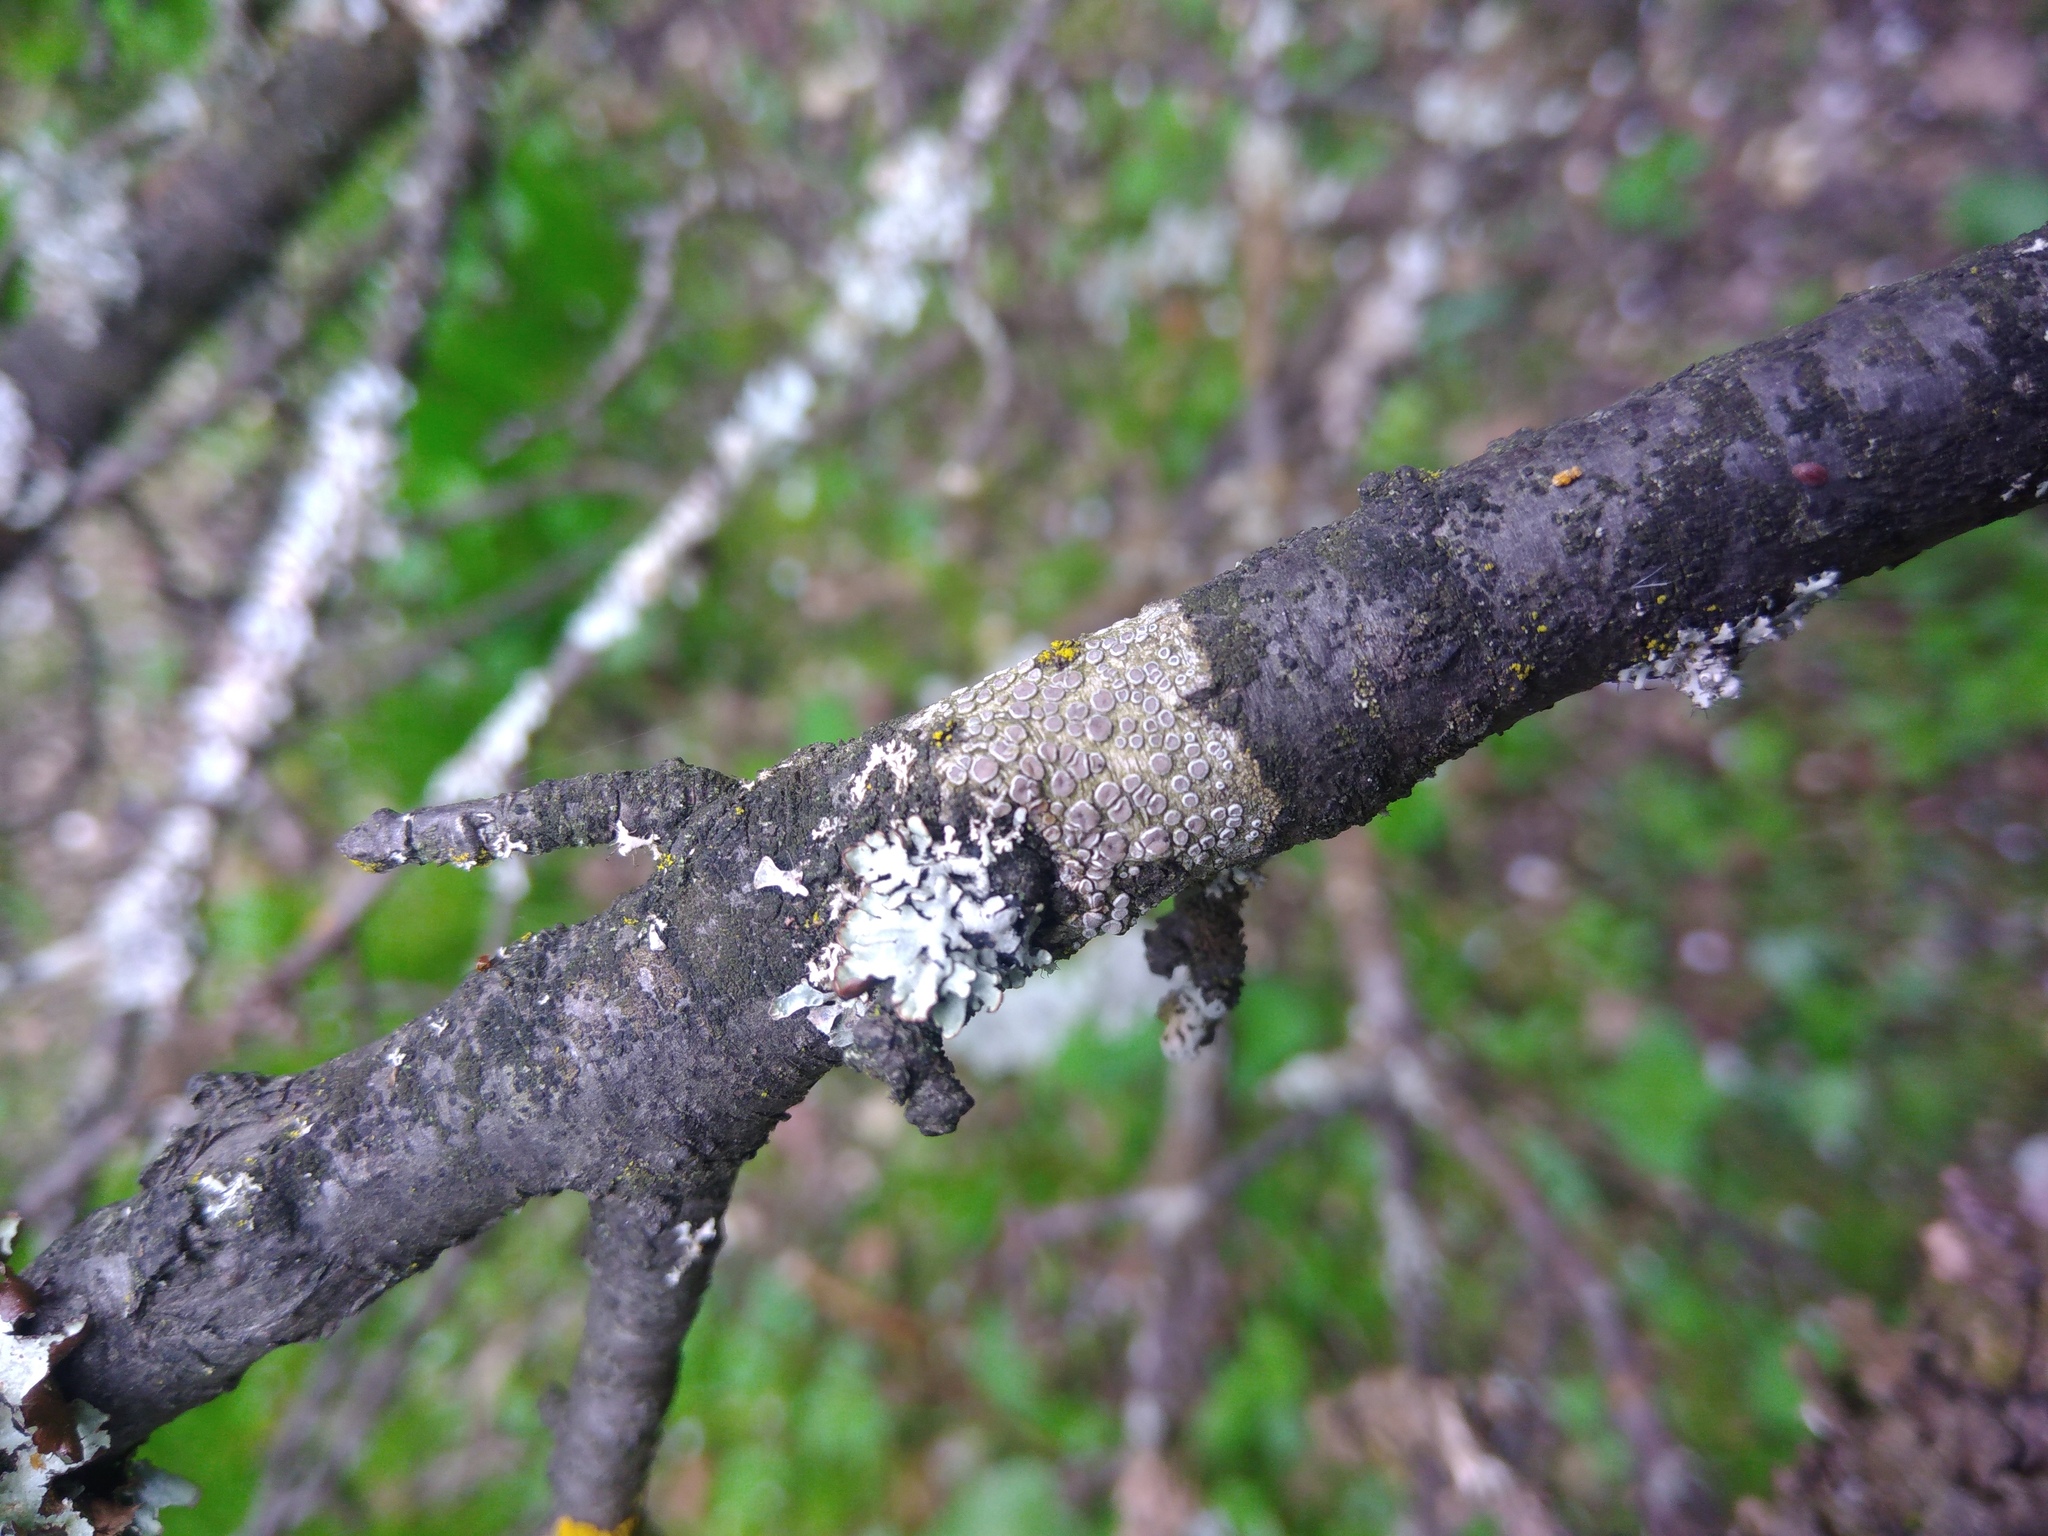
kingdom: Fungi
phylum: Ascomycota
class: Lecanoromycetes
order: Lecanorales
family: Lecanoraceae
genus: Glaucomaria
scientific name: Glaucomaria carpinea
